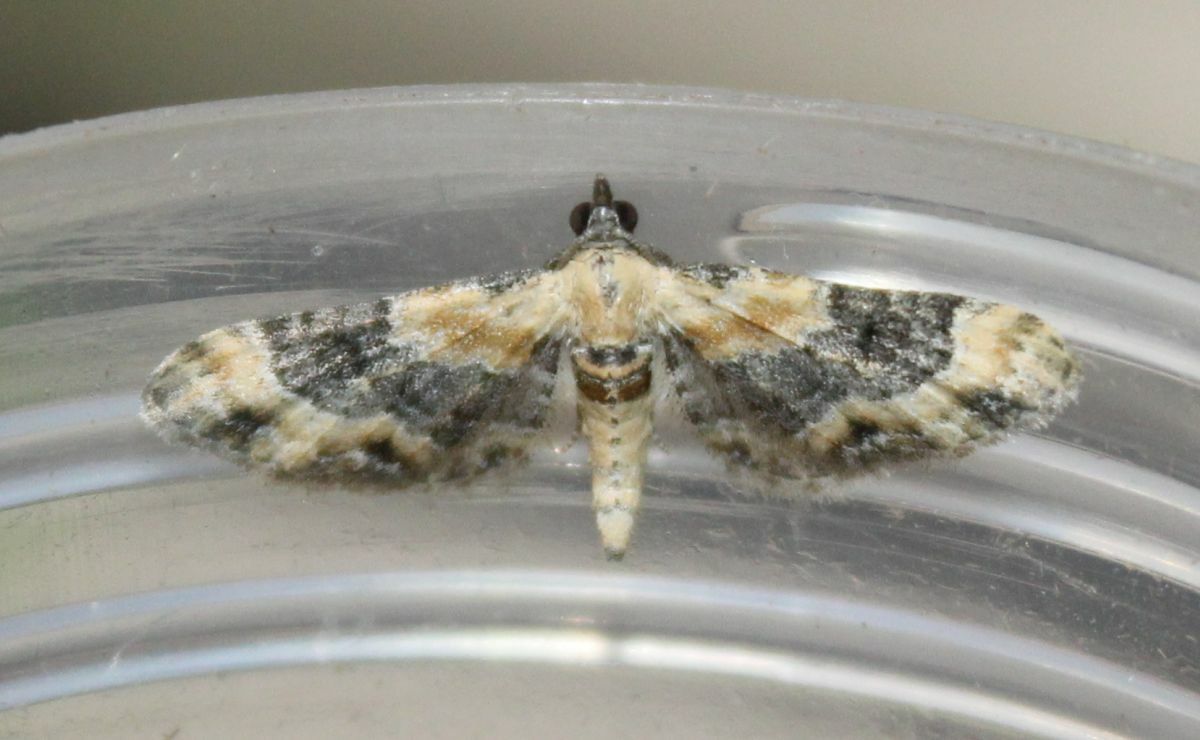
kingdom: Animalia
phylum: Arthropoda
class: Insecta
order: Lepidoptera
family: Geometridae
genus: Eupithecia
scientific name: Eupithecia linariata
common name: Toadflax pug
